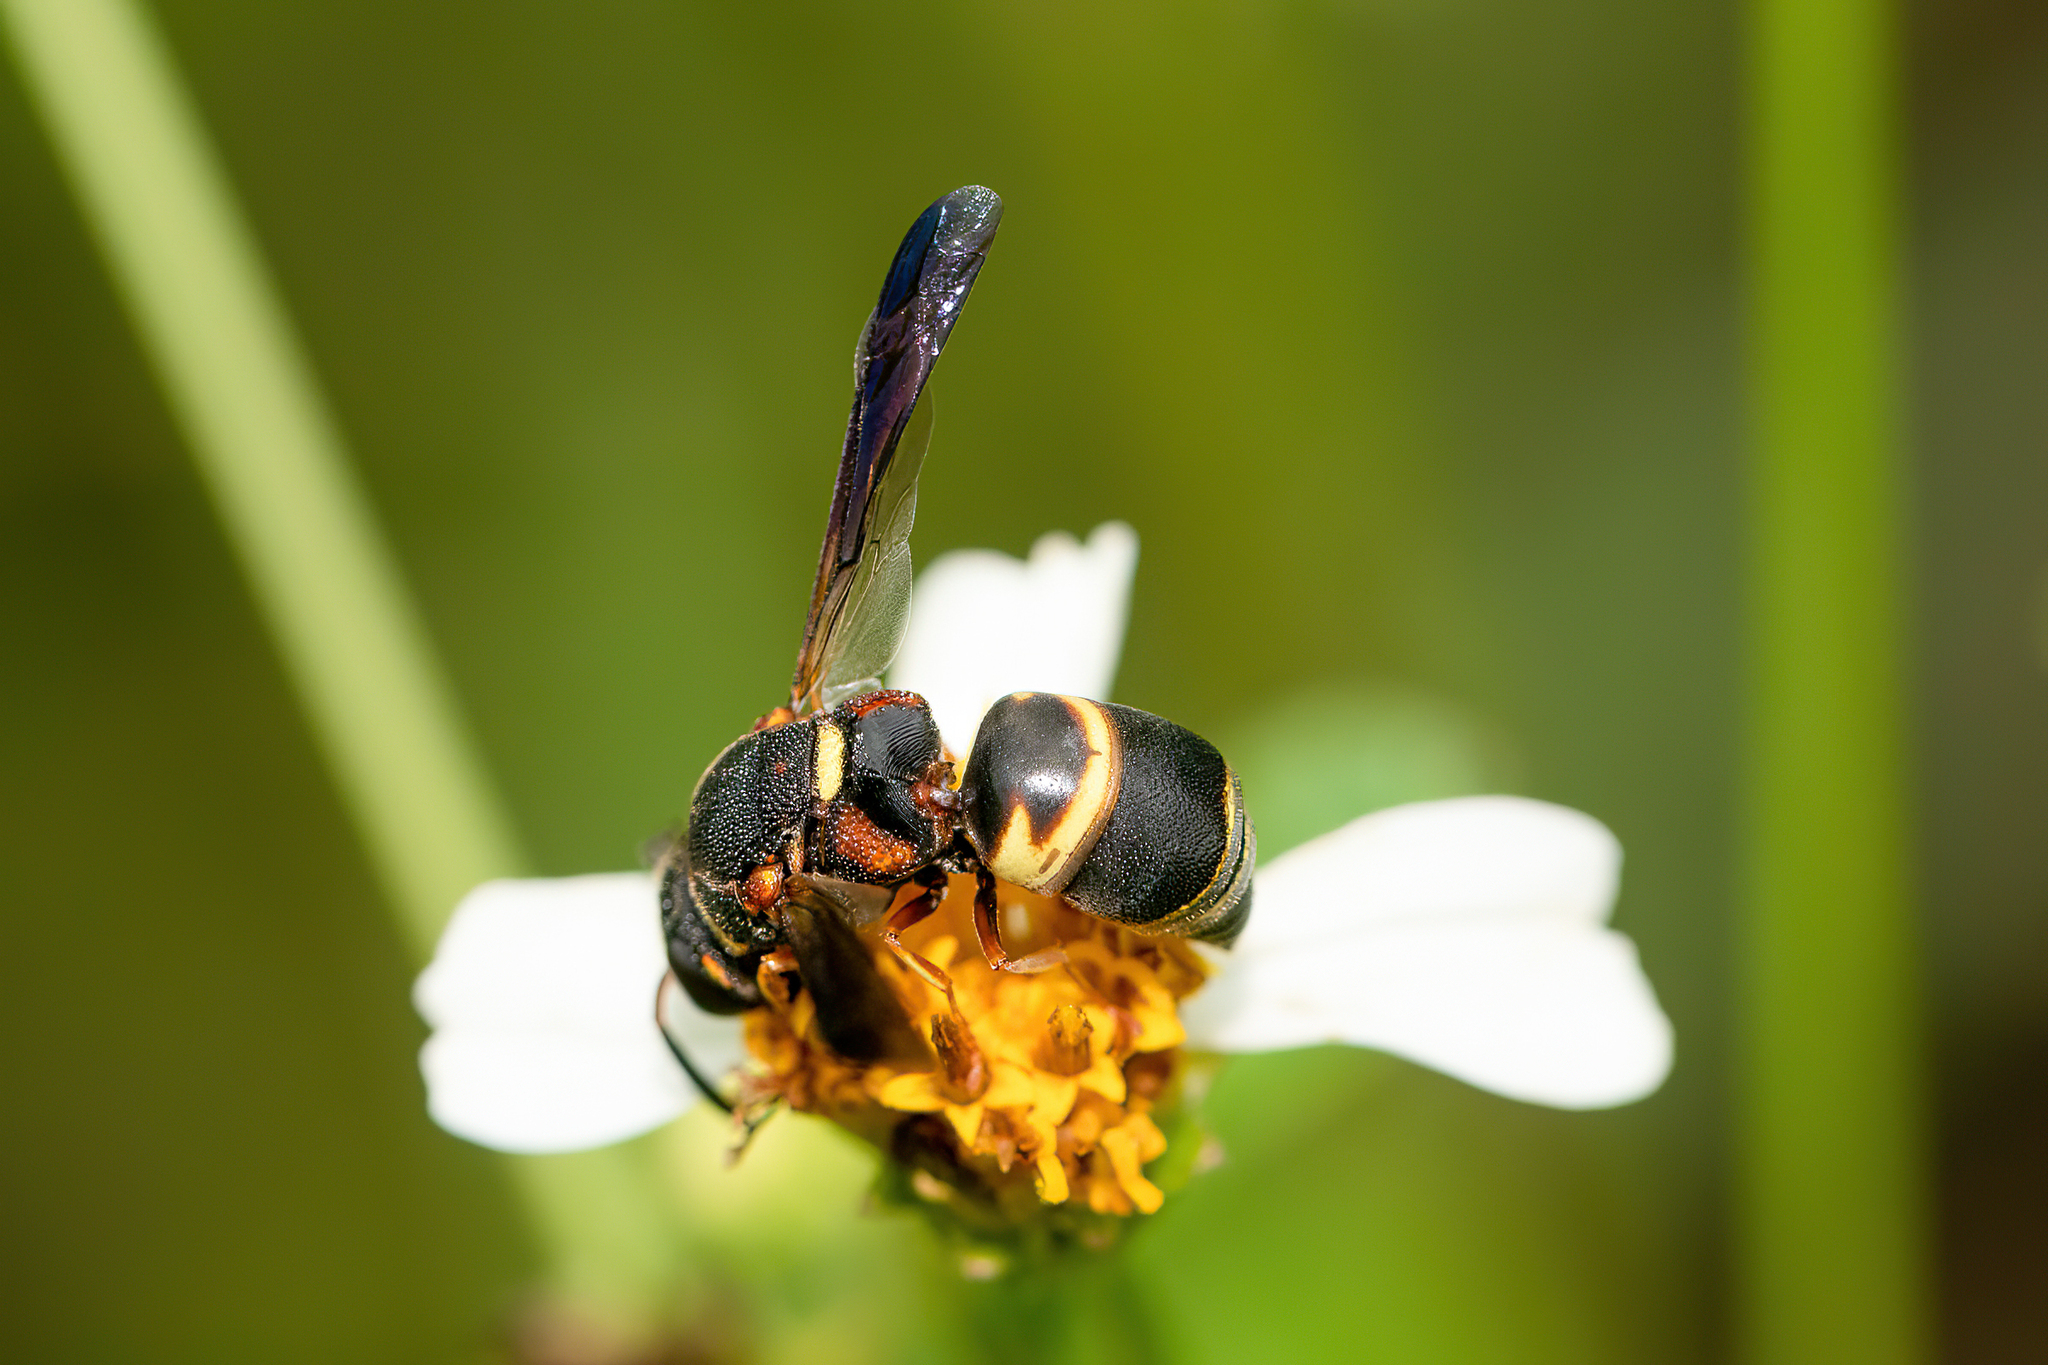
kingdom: Animalia
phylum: Arthropoda
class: Insecta
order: Hymenoptera
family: Eumenidae
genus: Euodynerus
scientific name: Euodynerus hidalgo
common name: Wasp
